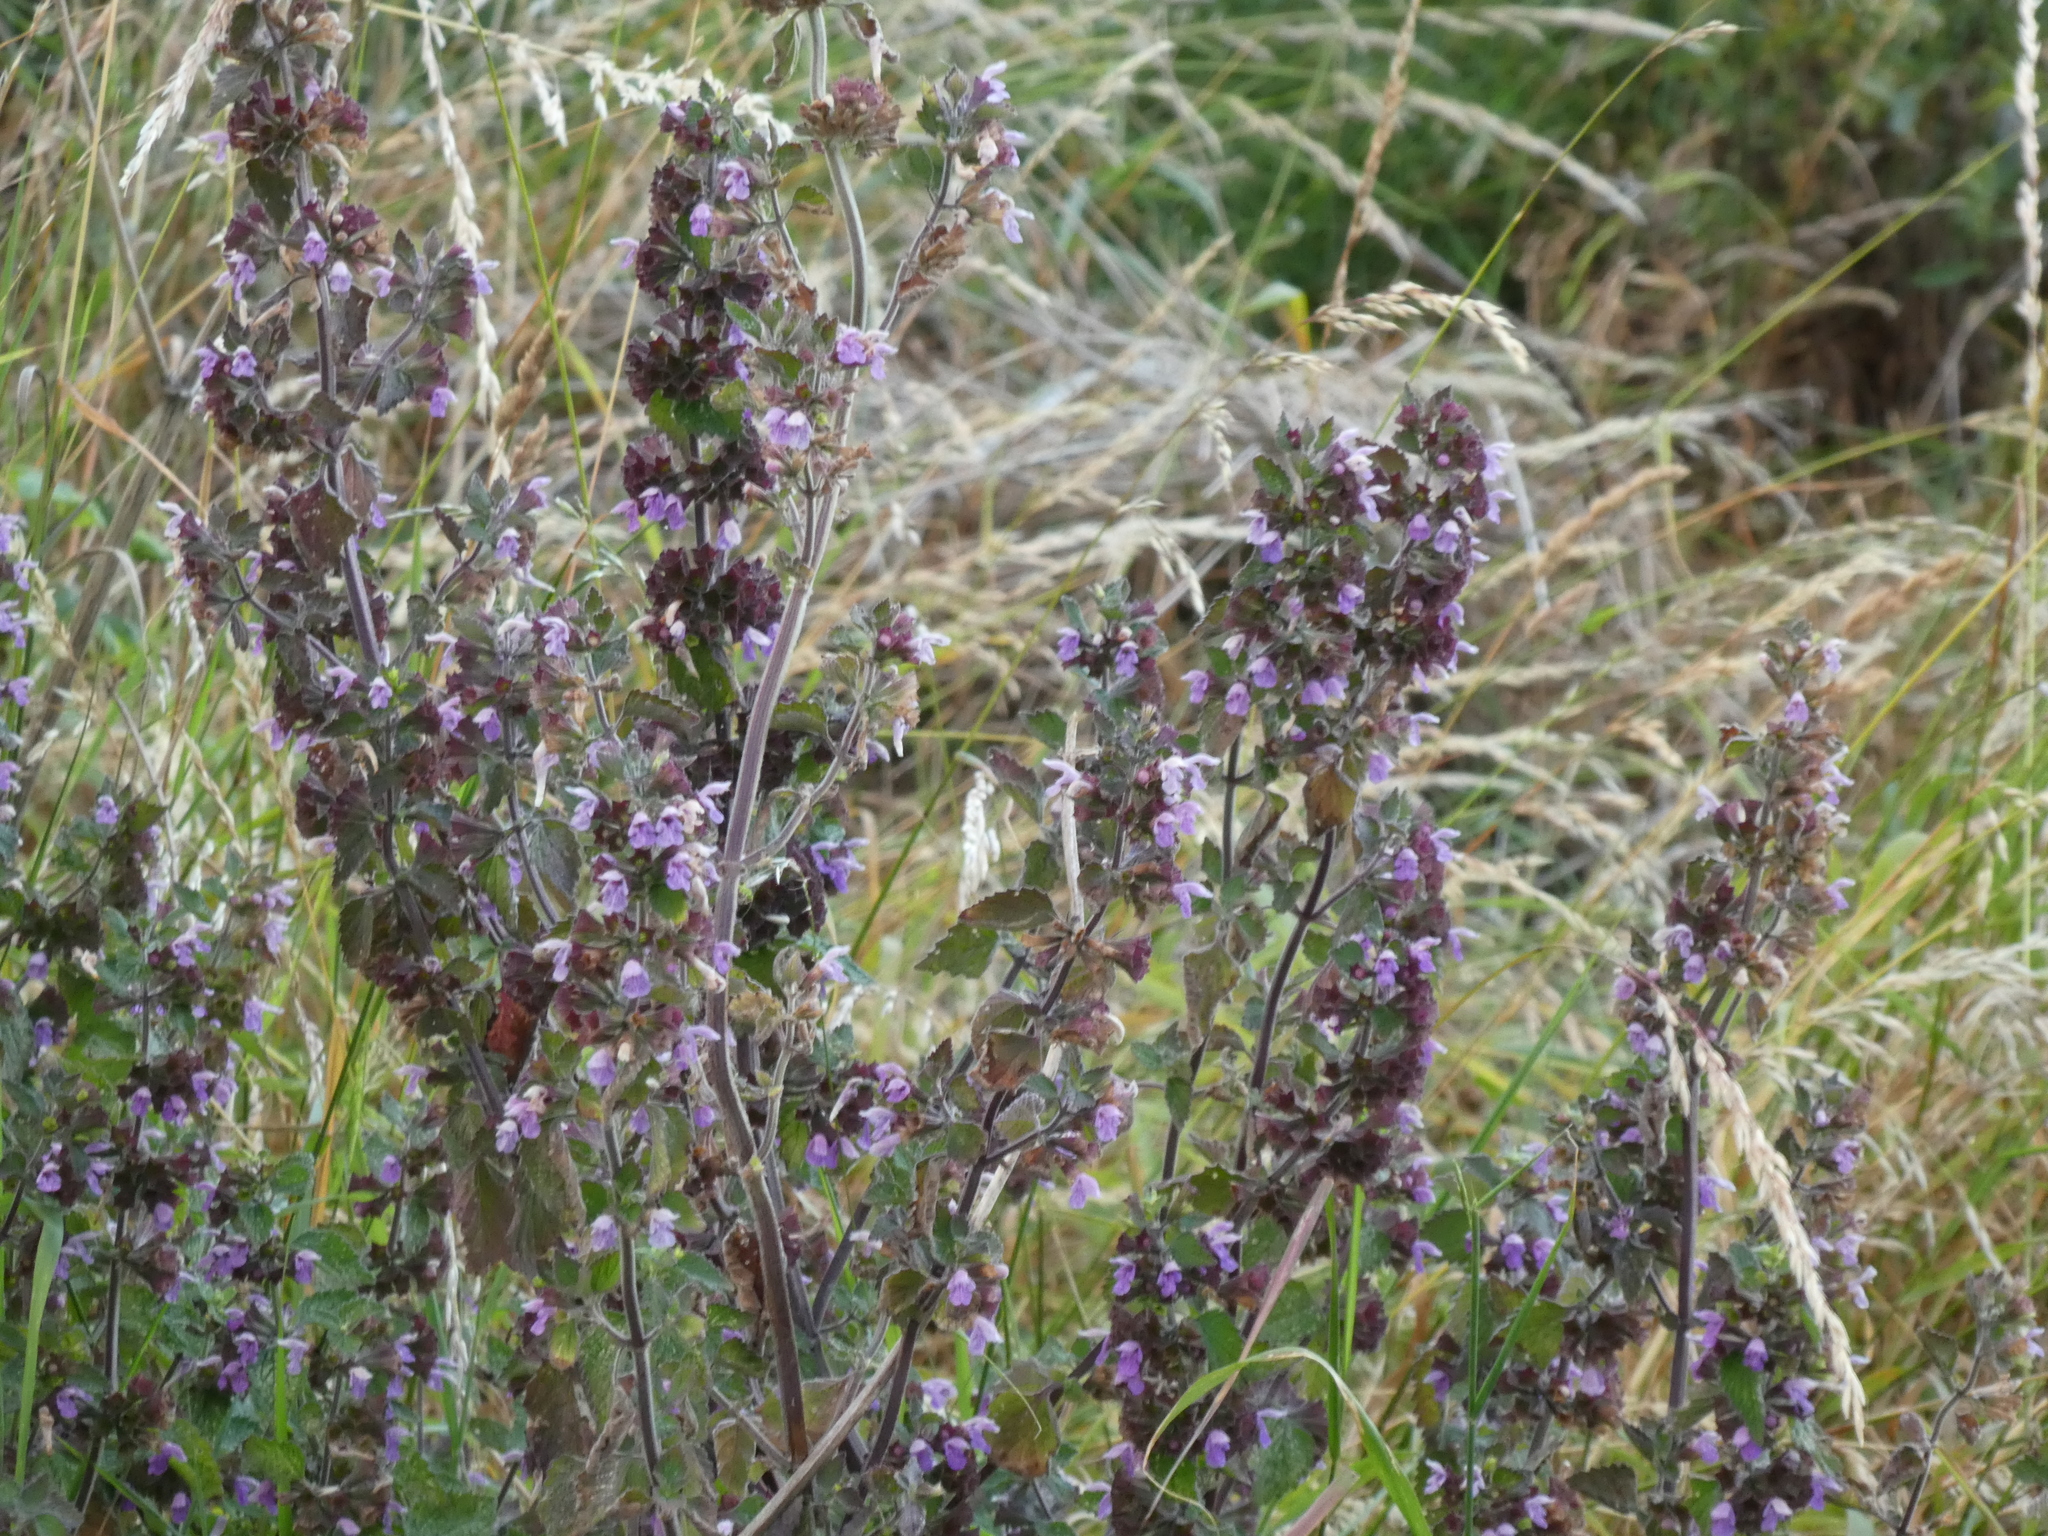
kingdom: Plantae
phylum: Tracheophyta
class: Magnoliopsida
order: Lamiales
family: Lamiaceae
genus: Ballota
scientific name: Ballota nigra
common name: Black horehound
